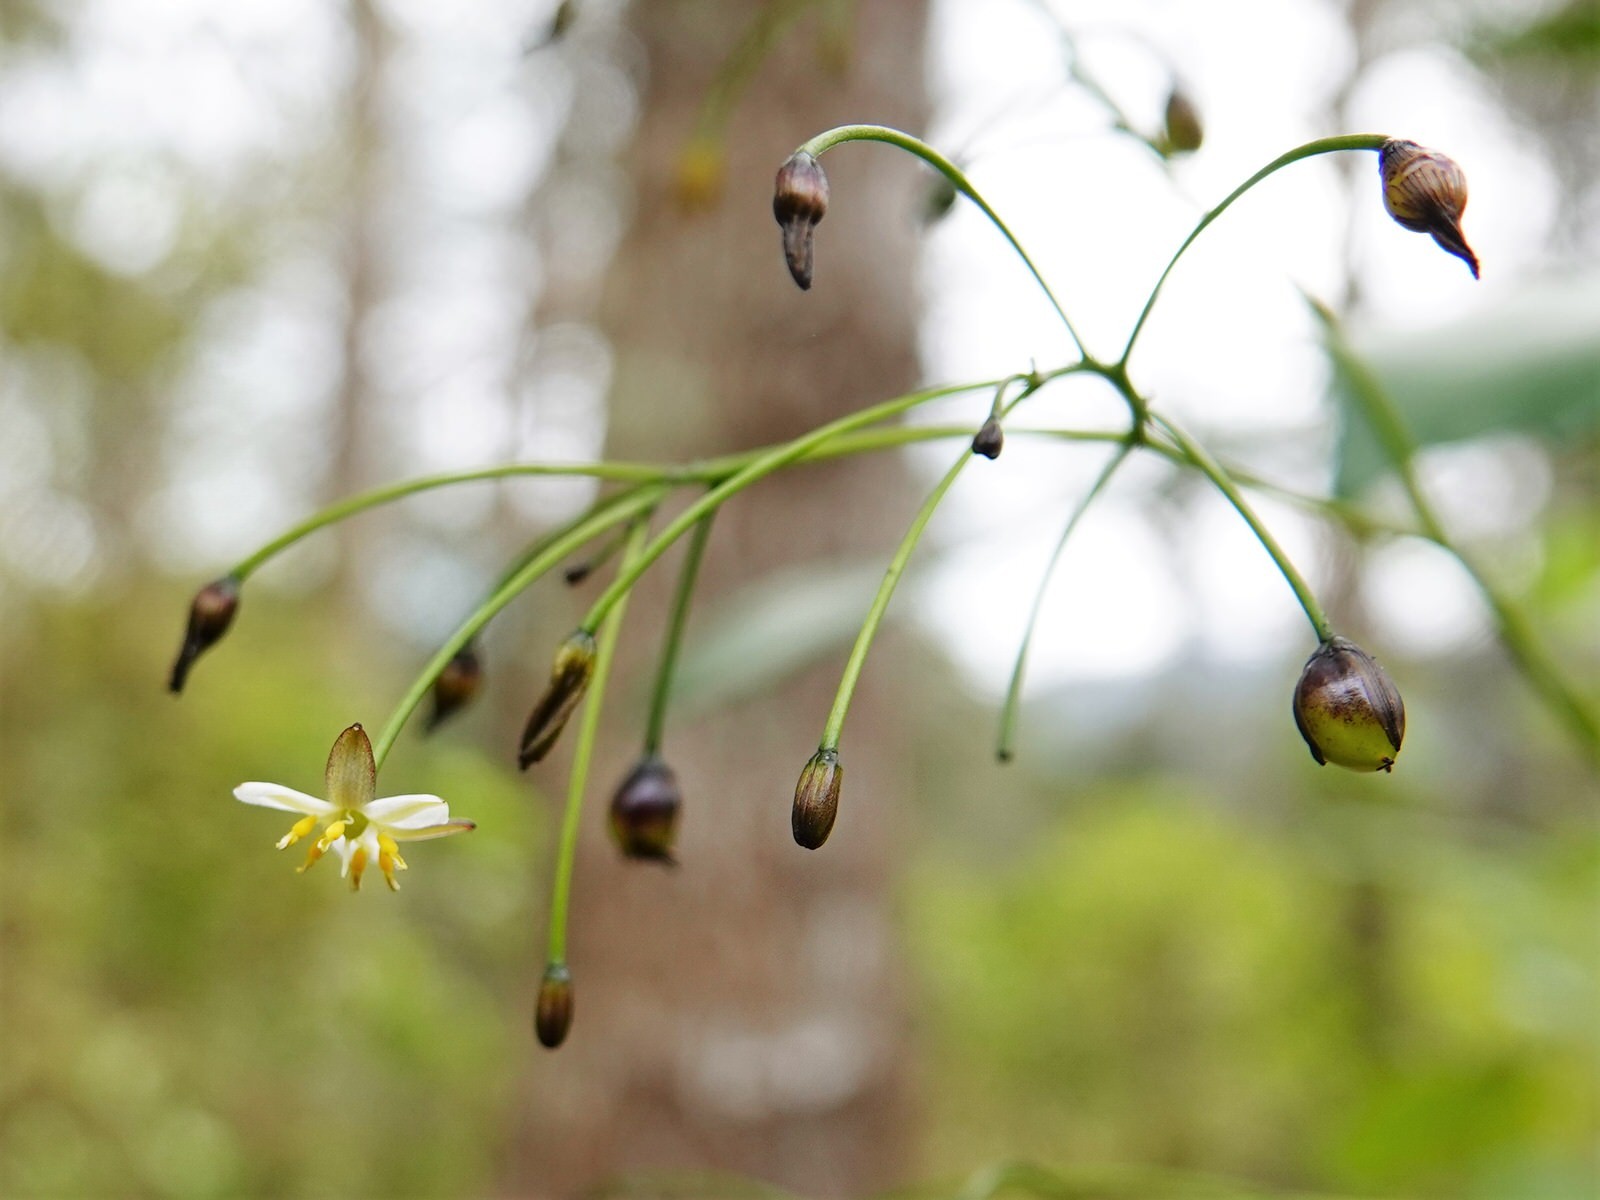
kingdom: Plantae
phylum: Tracheophyta
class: Liliopsida
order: Asparagales
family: Asphodelaceae
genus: Dianella
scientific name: Dianella nigra
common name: New zealand-blueberry
